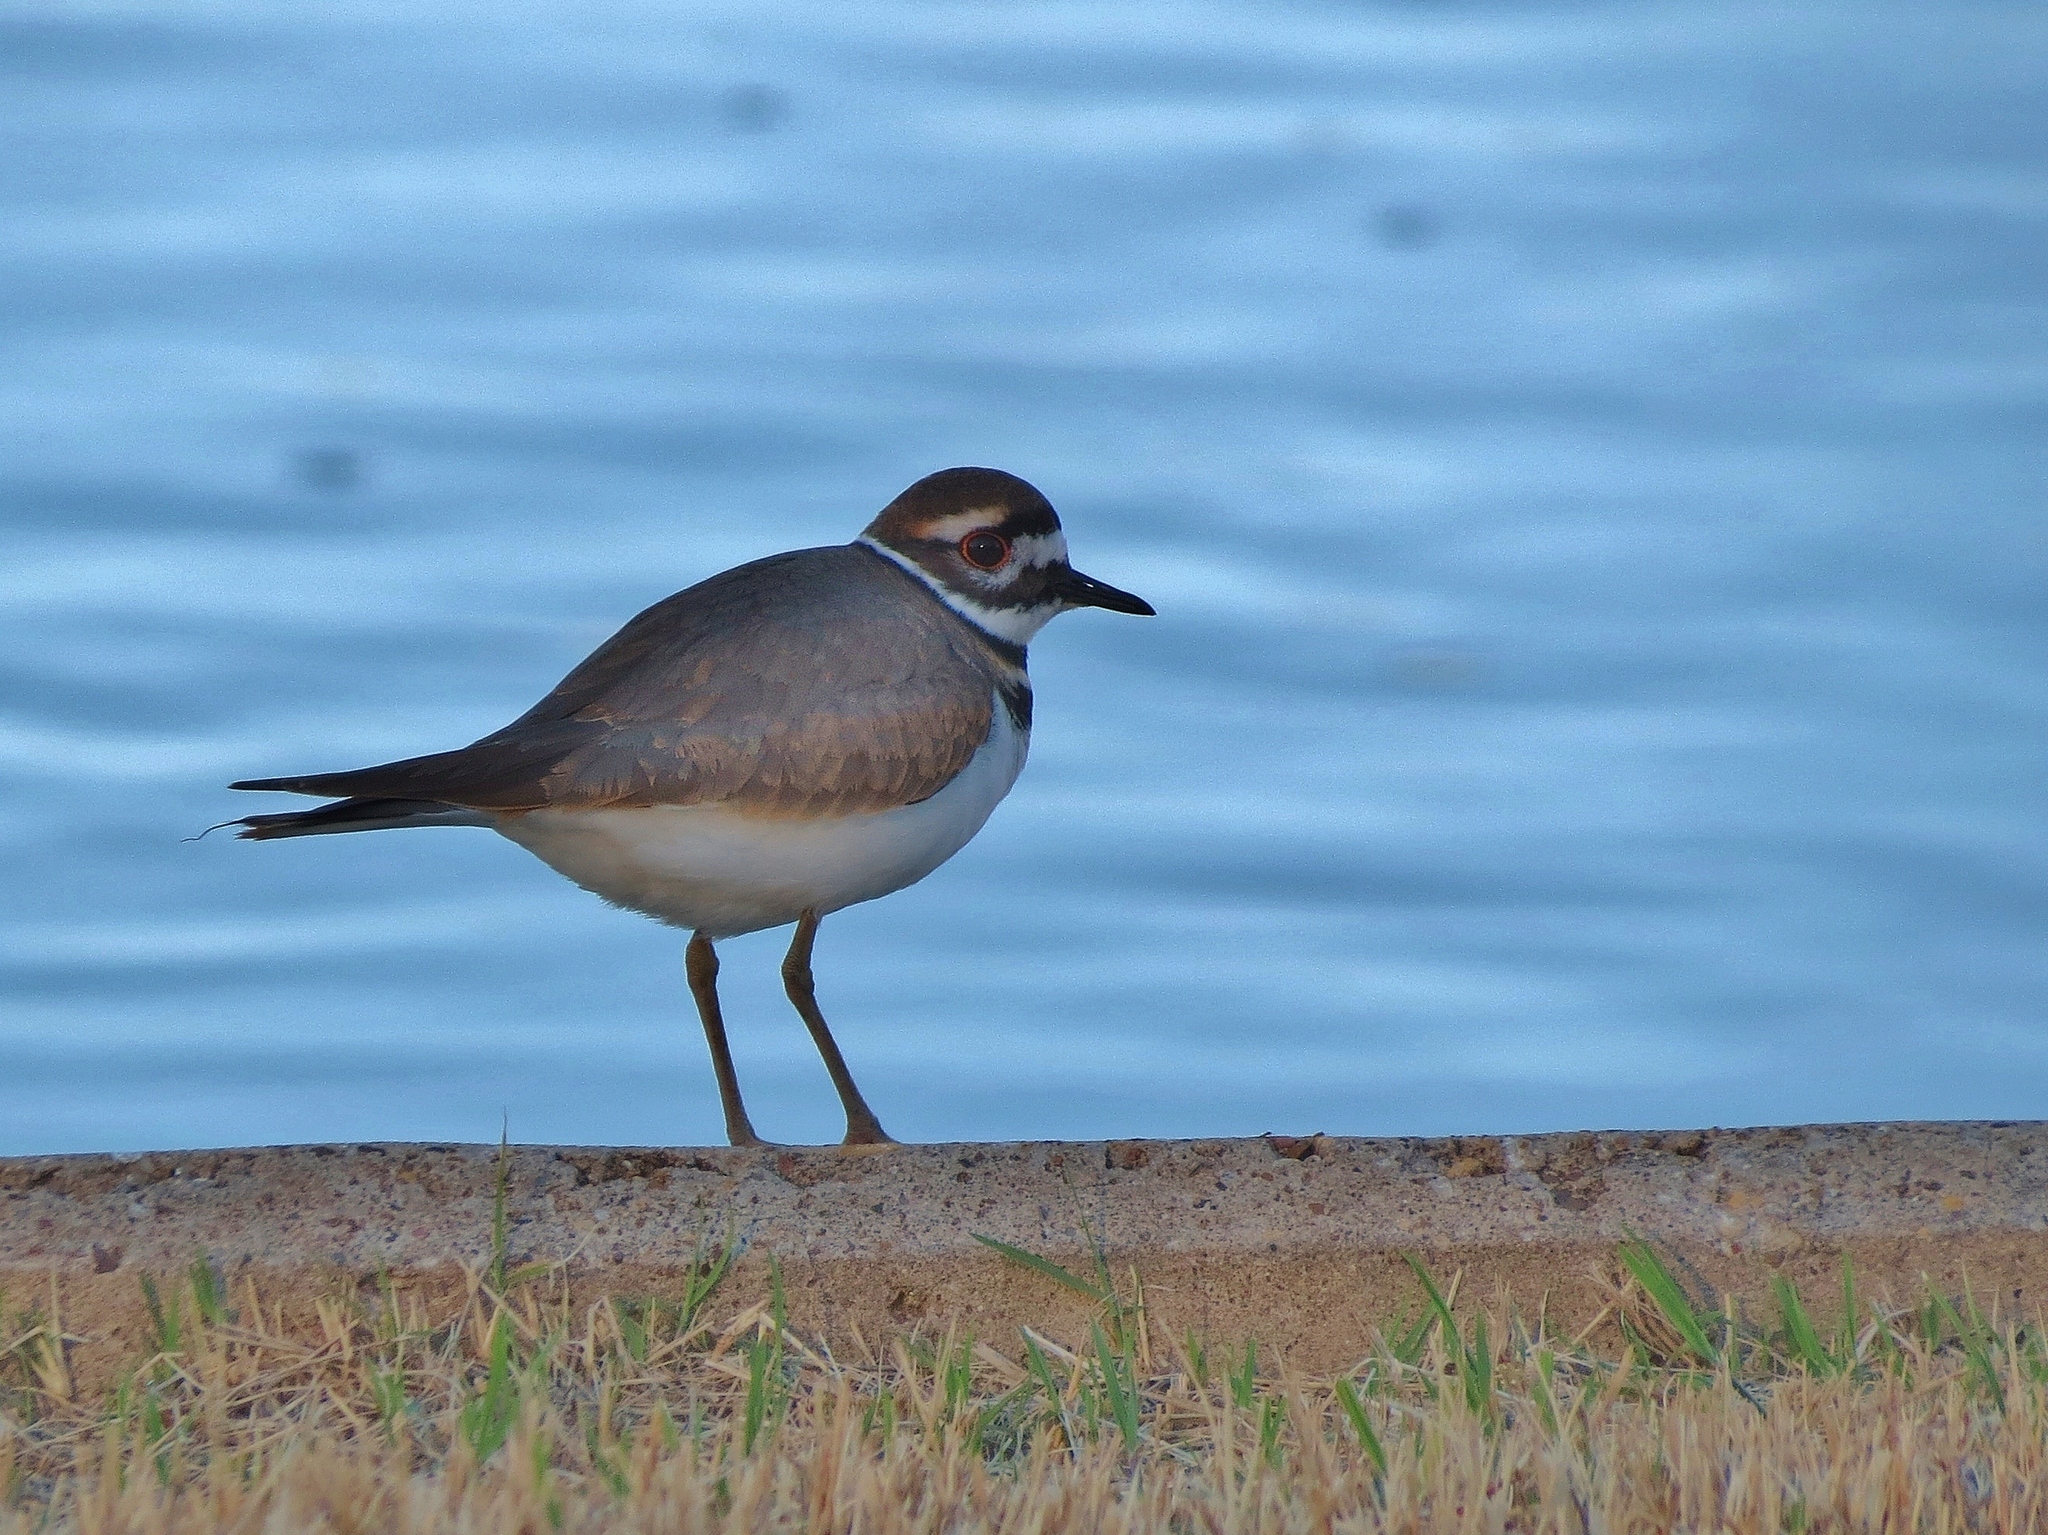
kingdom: Animalia
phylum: Chordata
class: Aves
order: Charadriiformes
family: Charadriidae
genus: Charadrius
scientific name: Charadrius vociferus
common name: Killdeer
